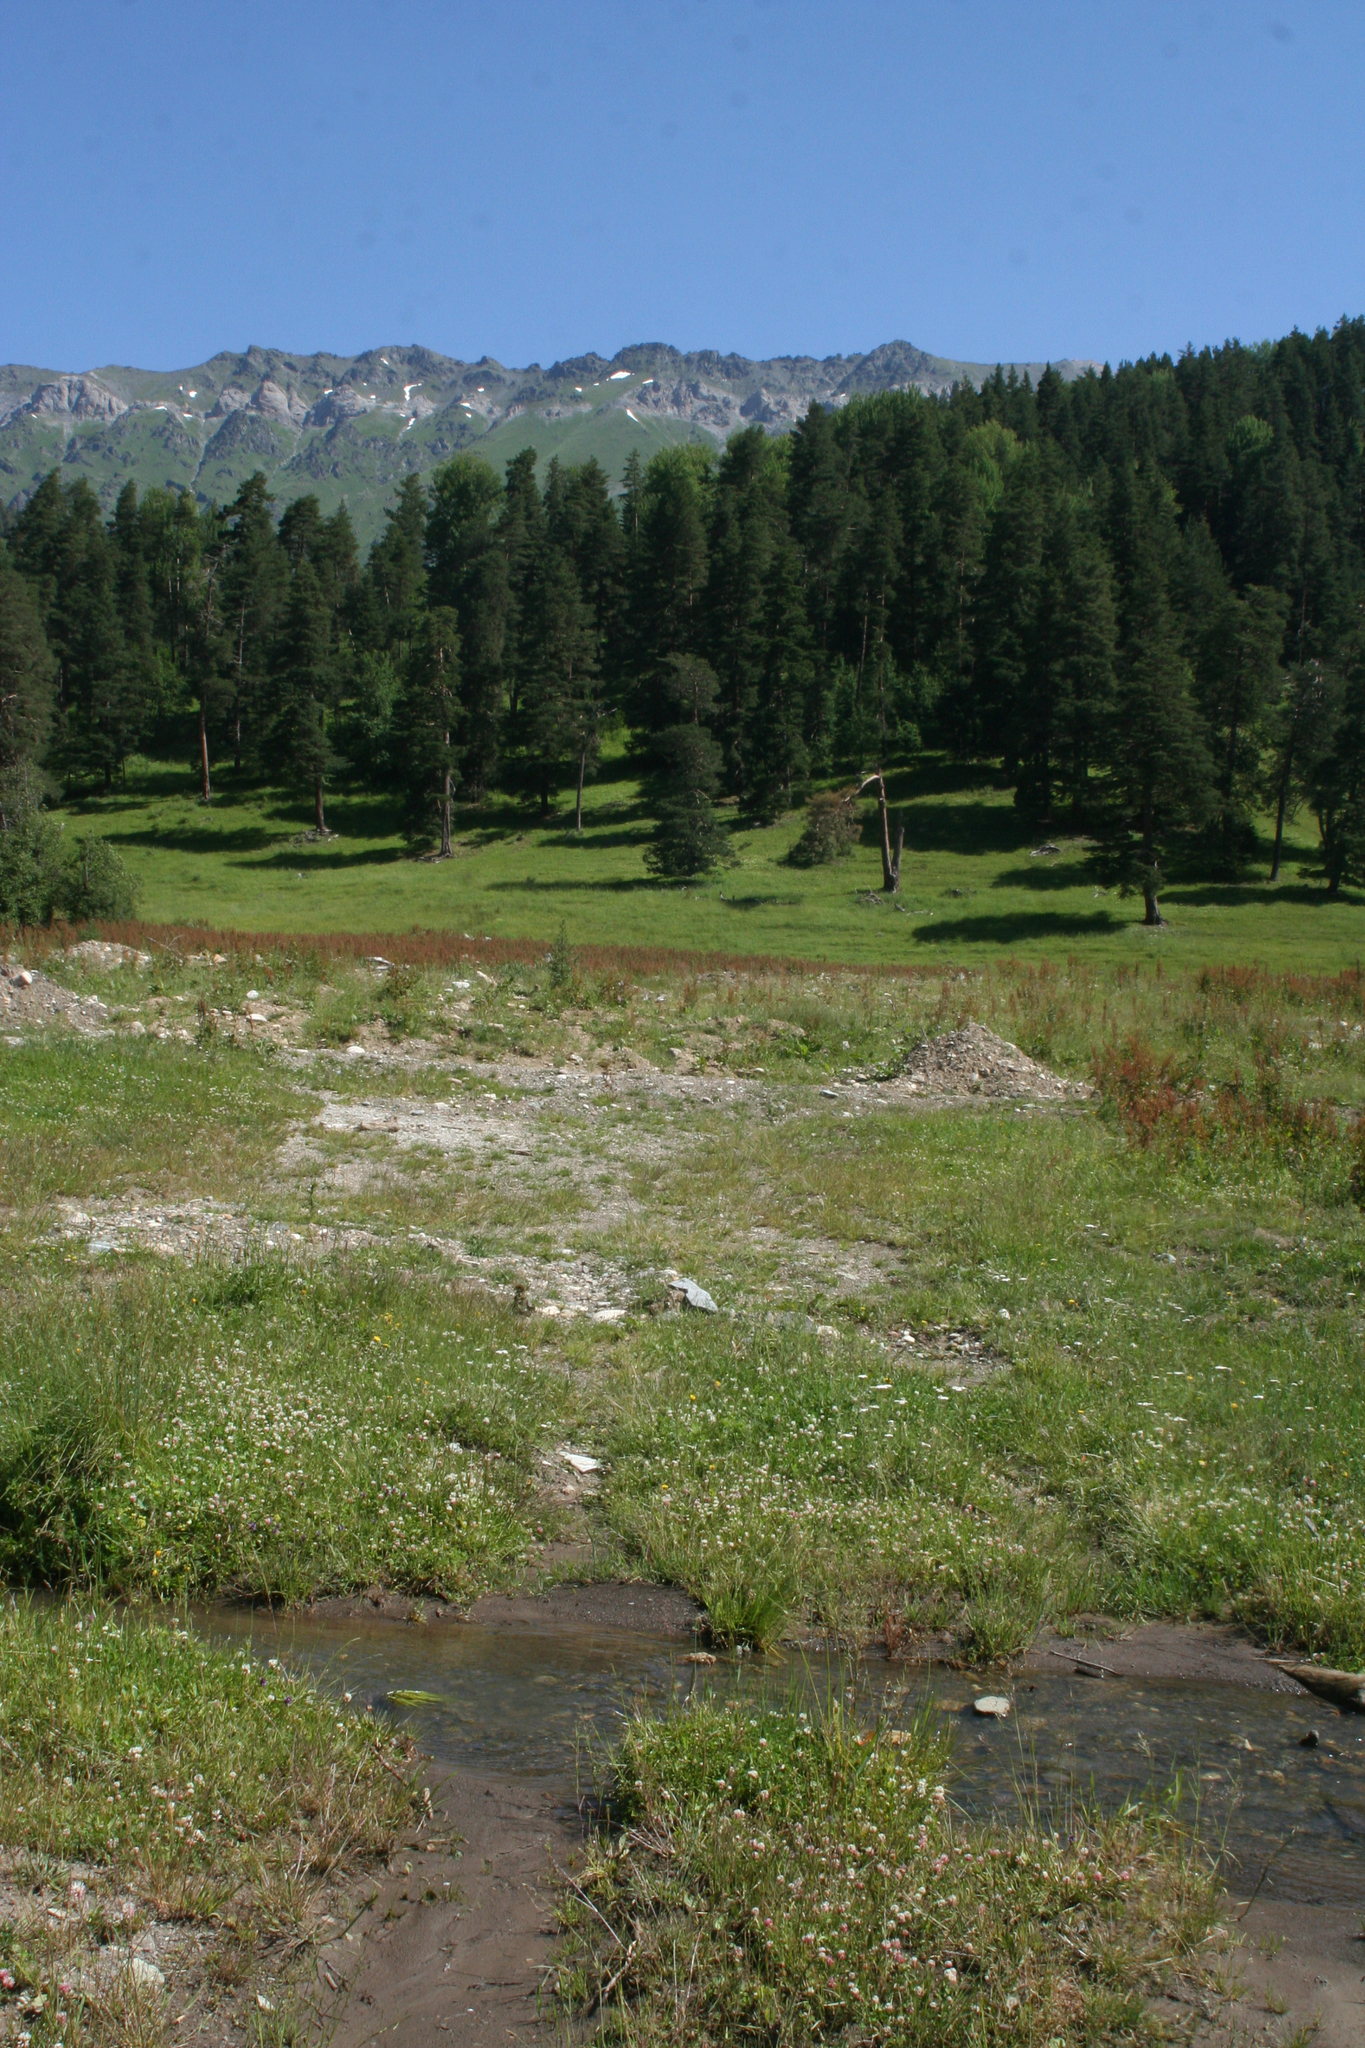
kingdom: Plantae
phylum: Tracheophyta
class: Pinopsida
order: Pinales
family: Pinaceae
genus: Pinus
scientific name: Pinus sylvestris
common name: Scots pine
